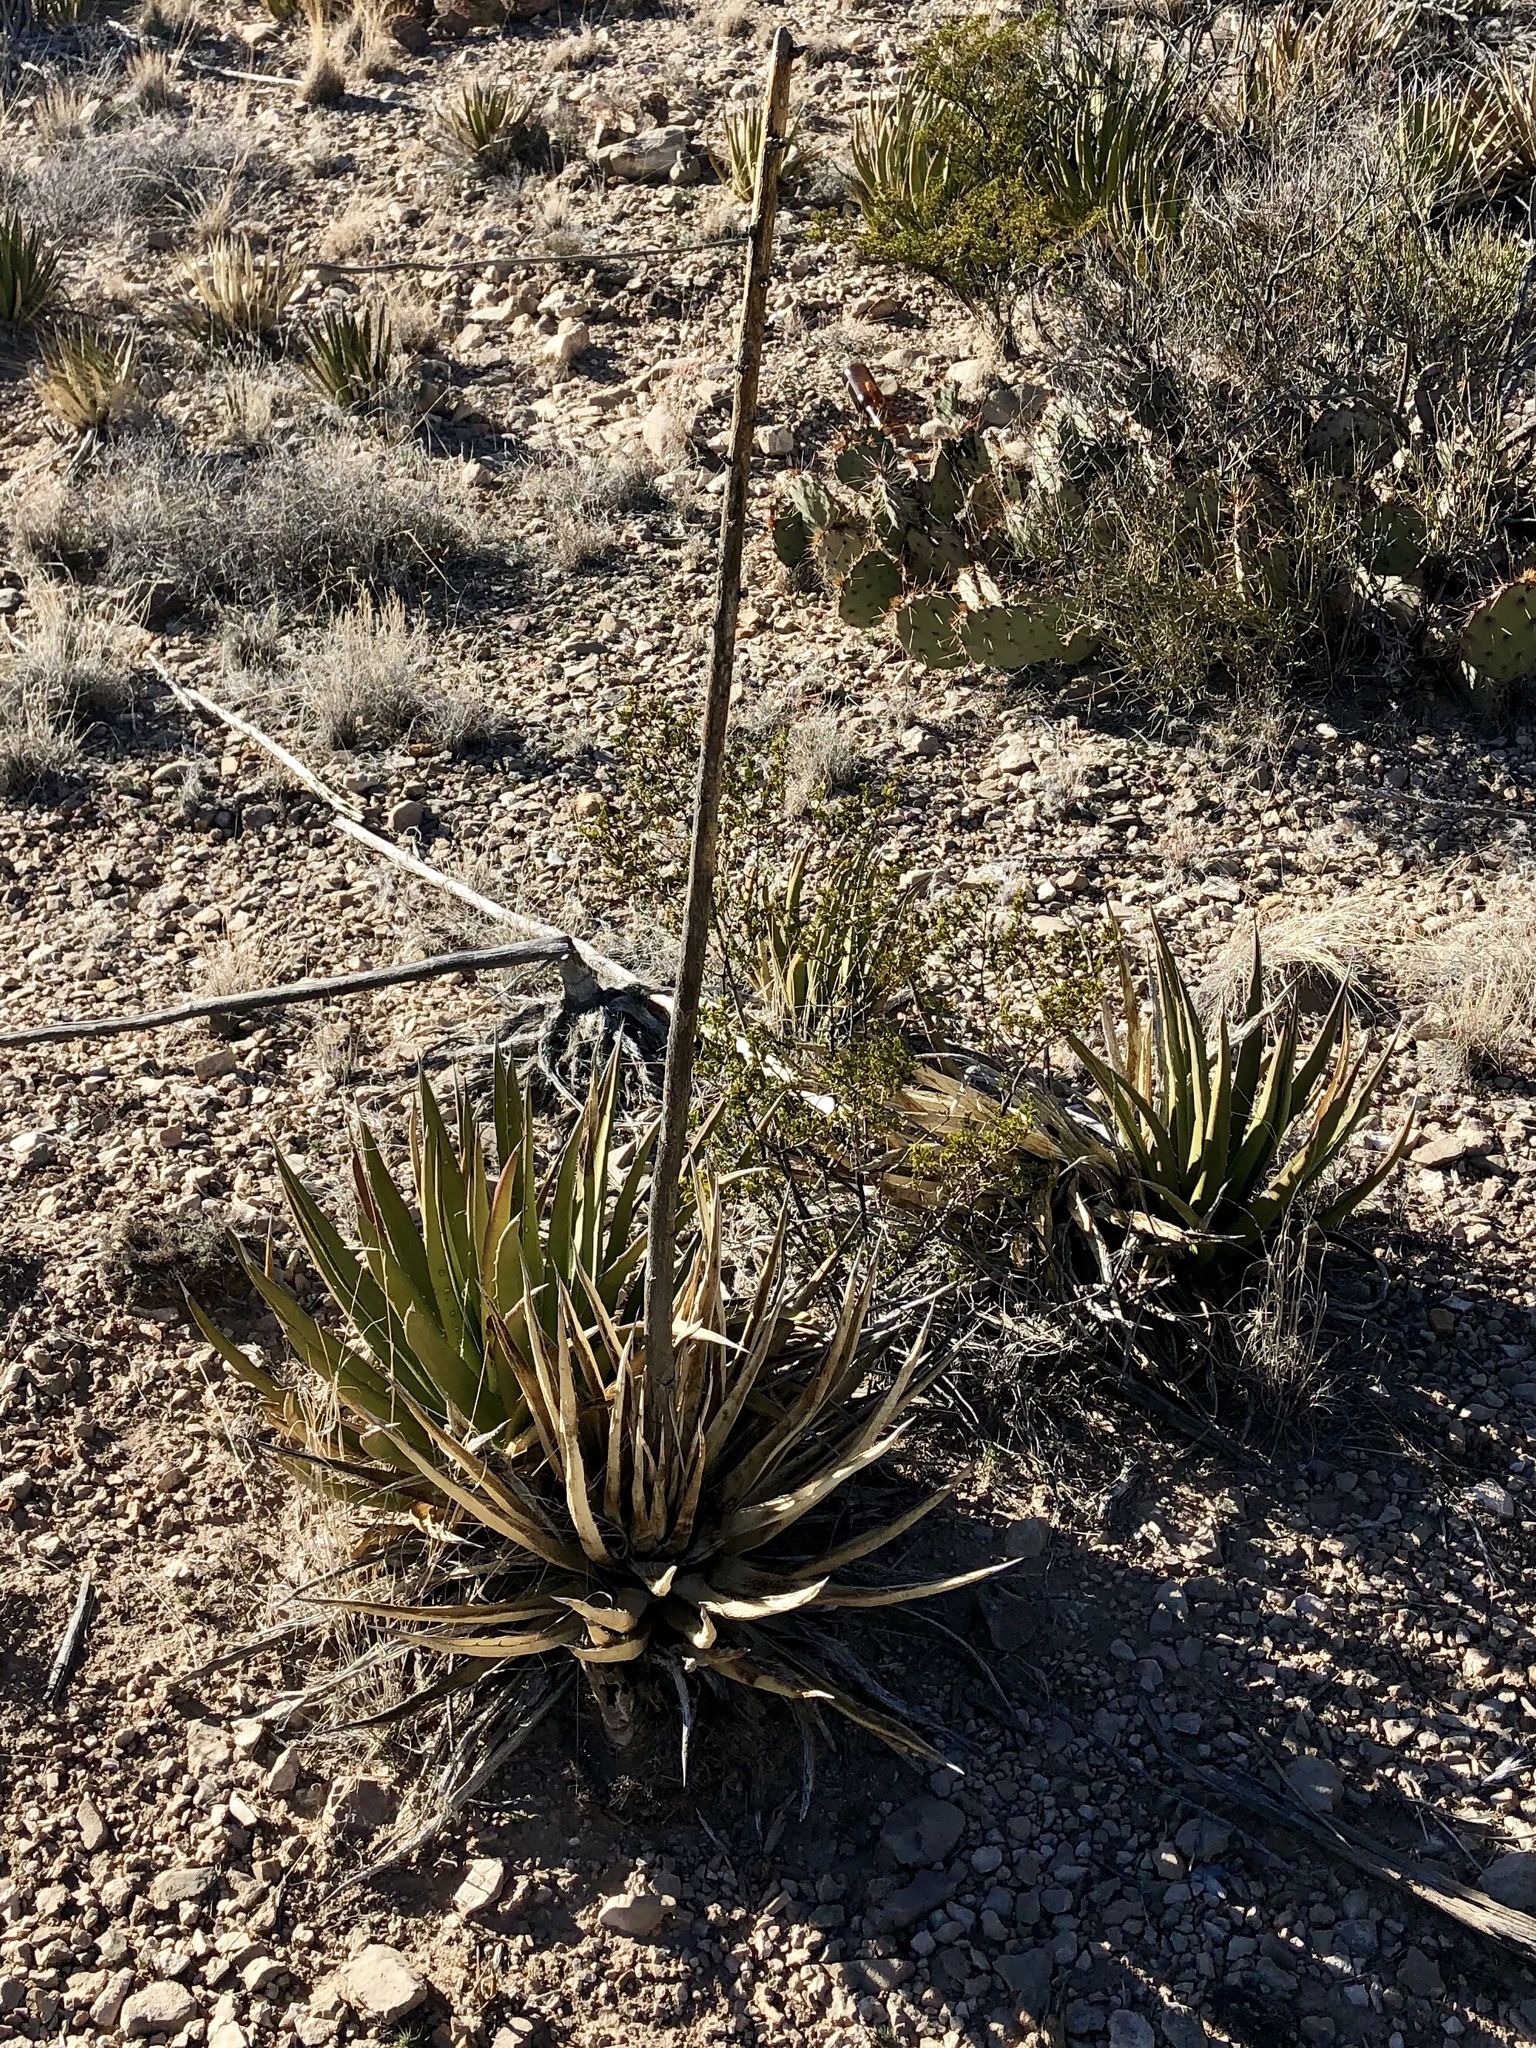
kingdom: Plantae
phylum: Tracheophyta
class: Liliopsida
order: Asparagales
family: Asparagaceae
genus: Agave
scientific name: Agave lechuguilla
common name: Lecheguilla agave
